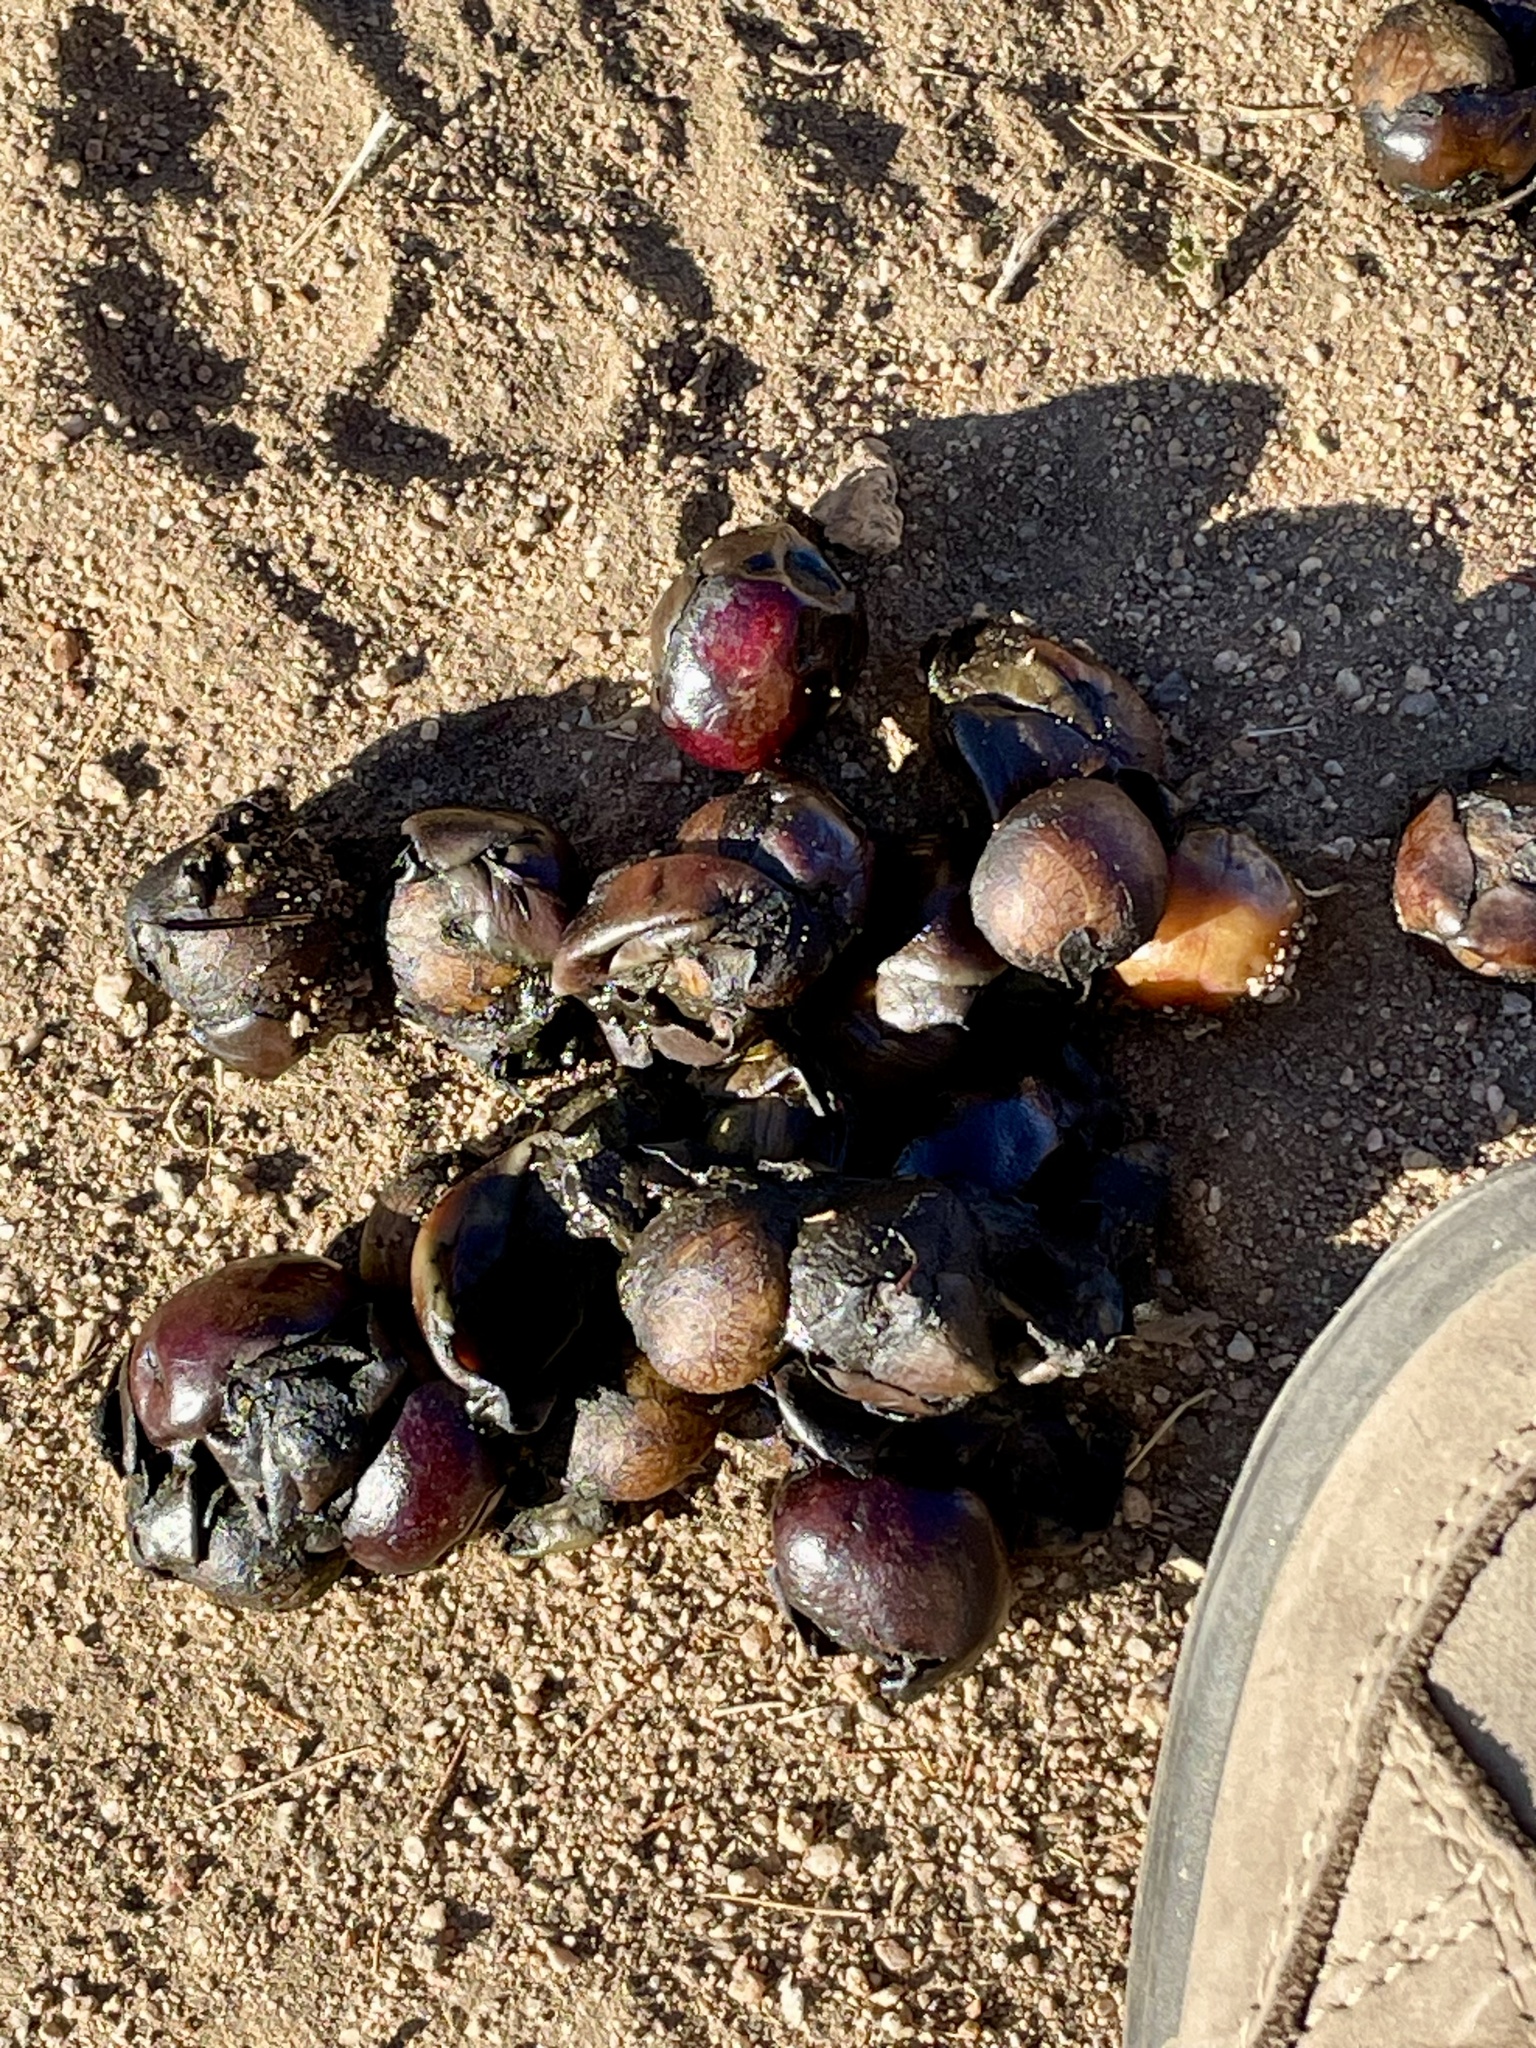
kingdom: Animalia
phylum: Chordata
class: Mammalia
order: Carnivora
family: Canidae
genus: Canis
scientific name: Canis latrans
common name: Coyote
